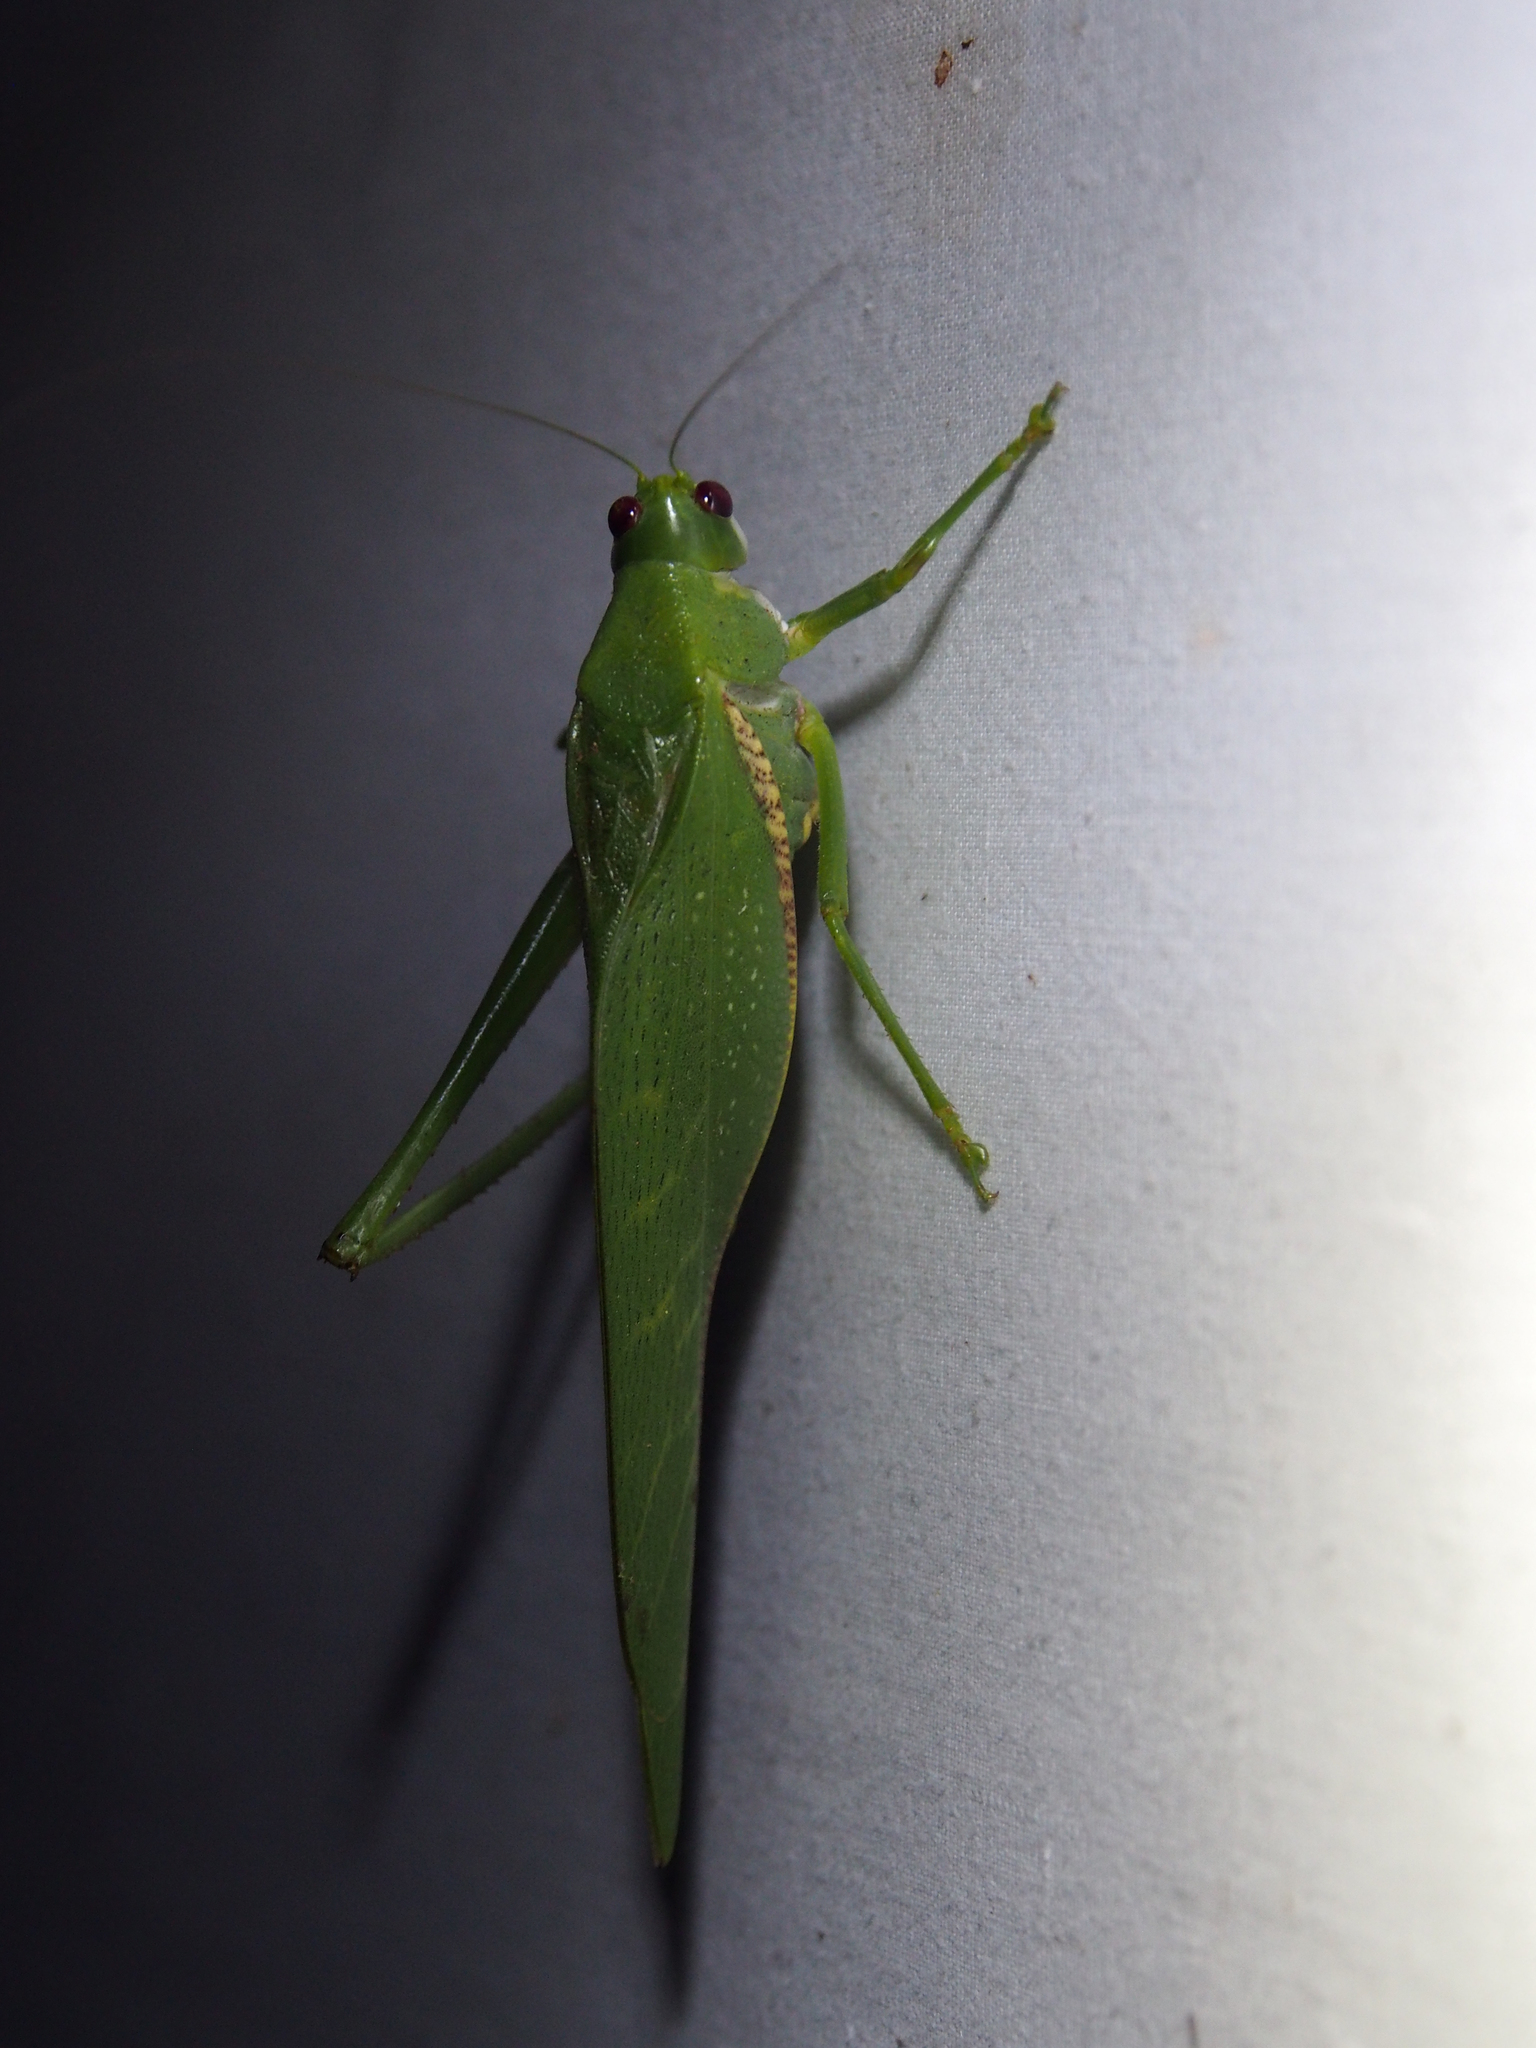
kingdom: Animalia
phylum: Arthropoda
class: Insecta
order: Orthoptera
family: Tettigoniidae
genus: Philophyllia
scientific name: Philophyllia guttulata
